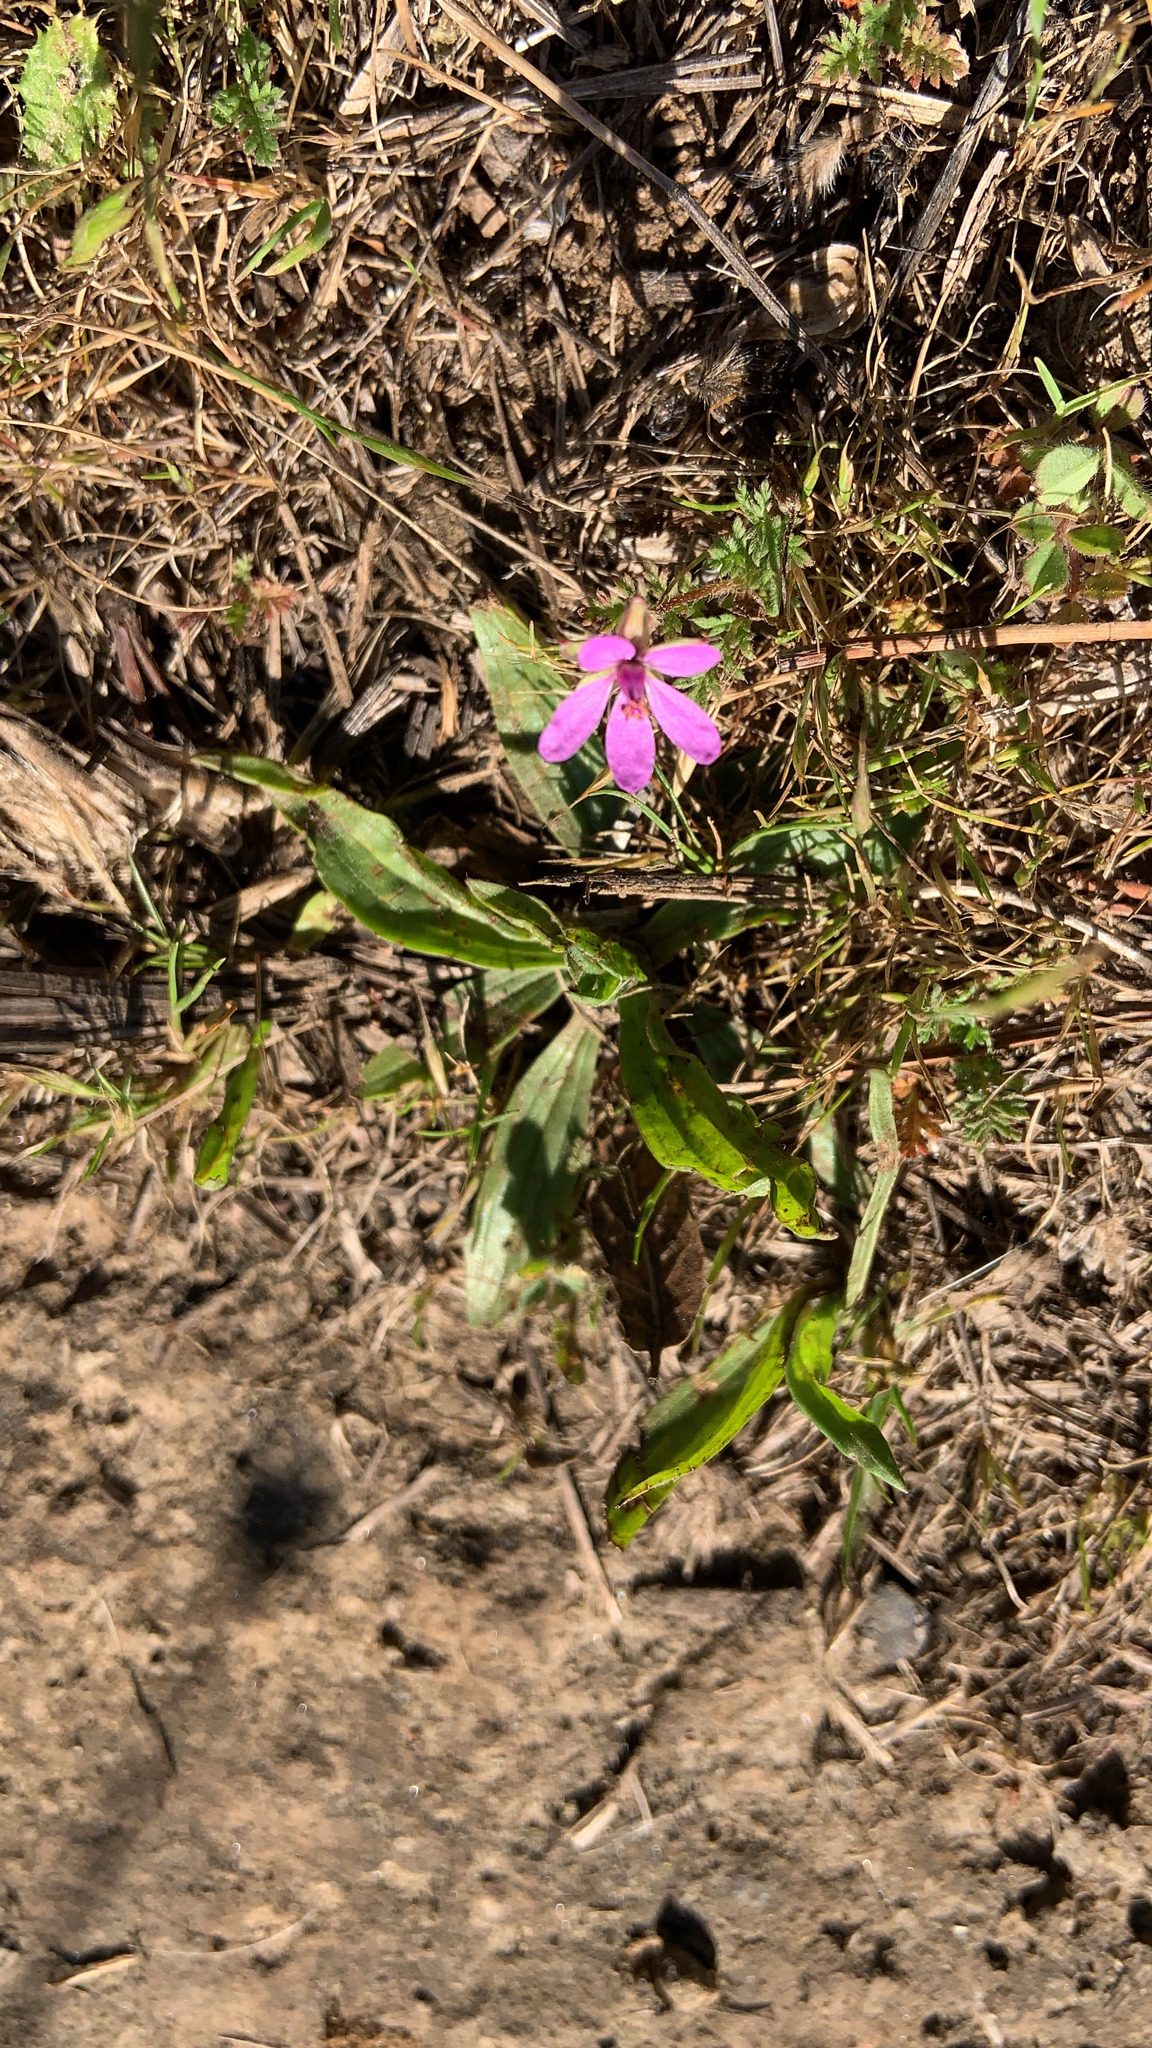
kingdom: Plantae
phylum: Tracheophyta
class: Magnoliopsida
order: Geraniales
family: Geraniaceae
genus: Erodium
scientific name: Erodium cicutarium
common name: Common stork's-bill
